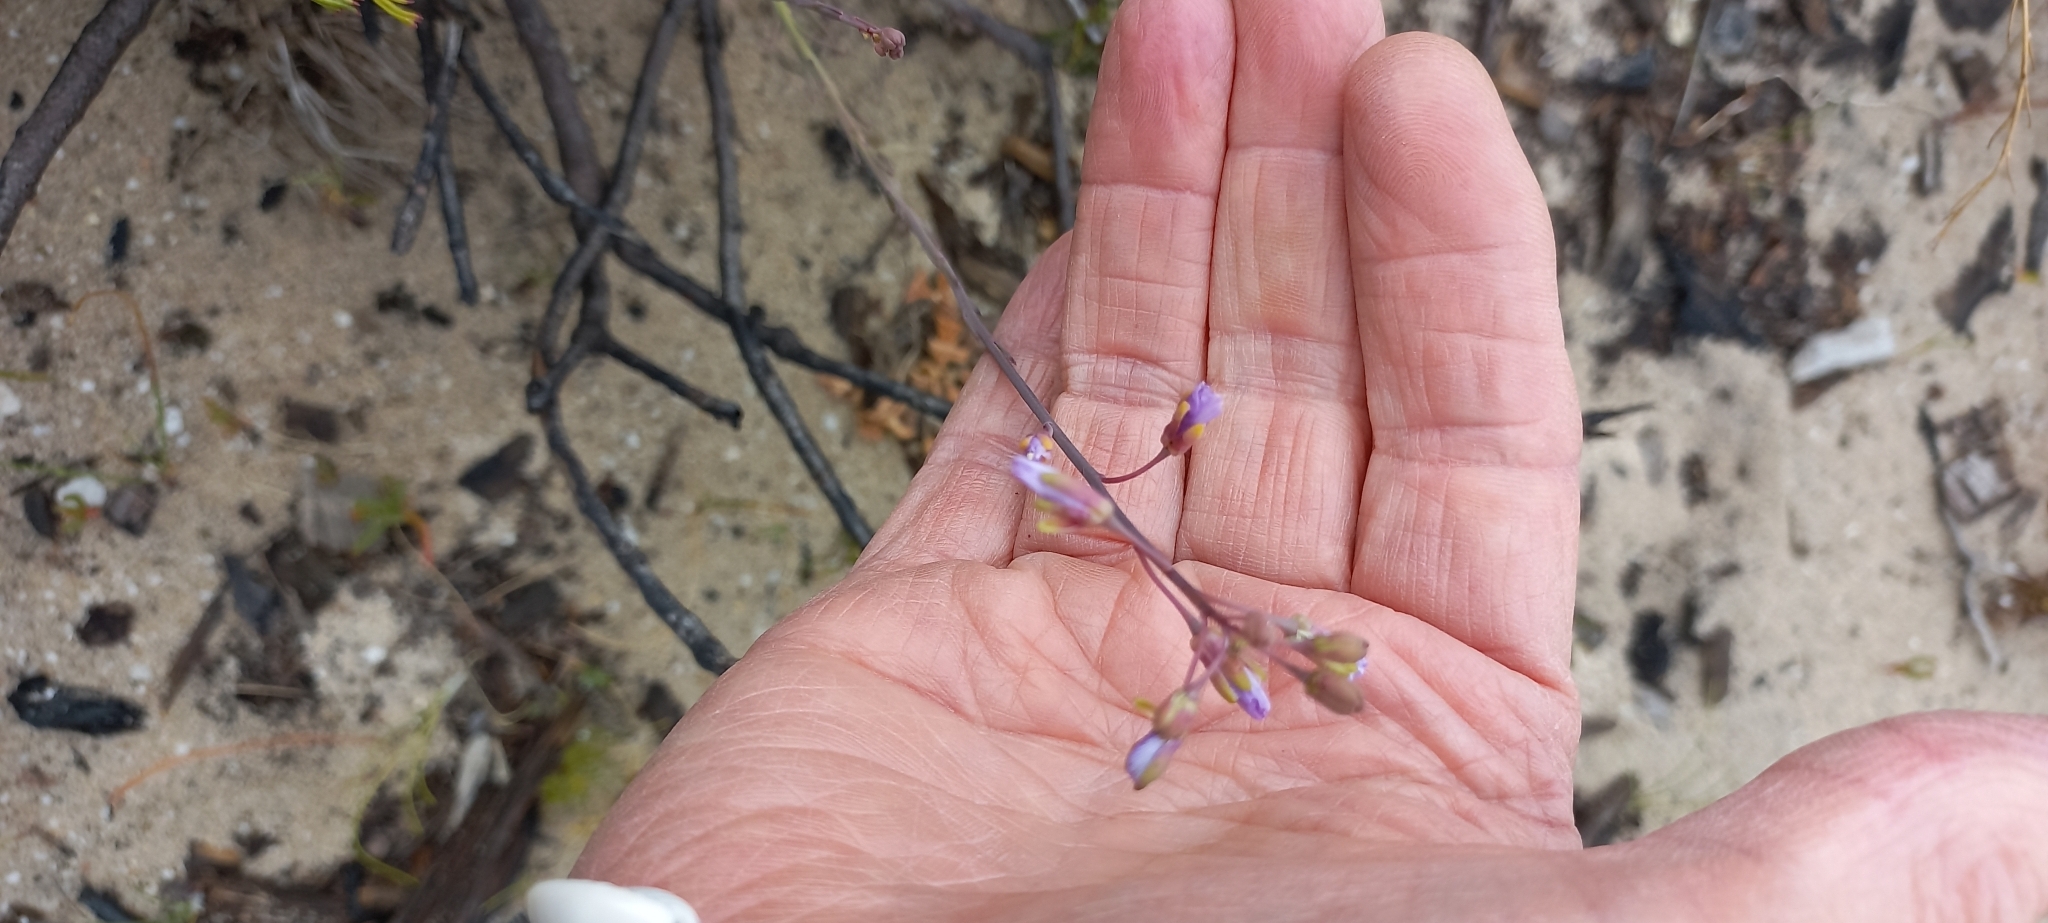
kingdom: Plantae
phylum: Tracheophyta
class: Magnoliopsida
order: Brassicales
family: Brassicaceae
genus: Heliophila
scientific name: Heliophila linearis
